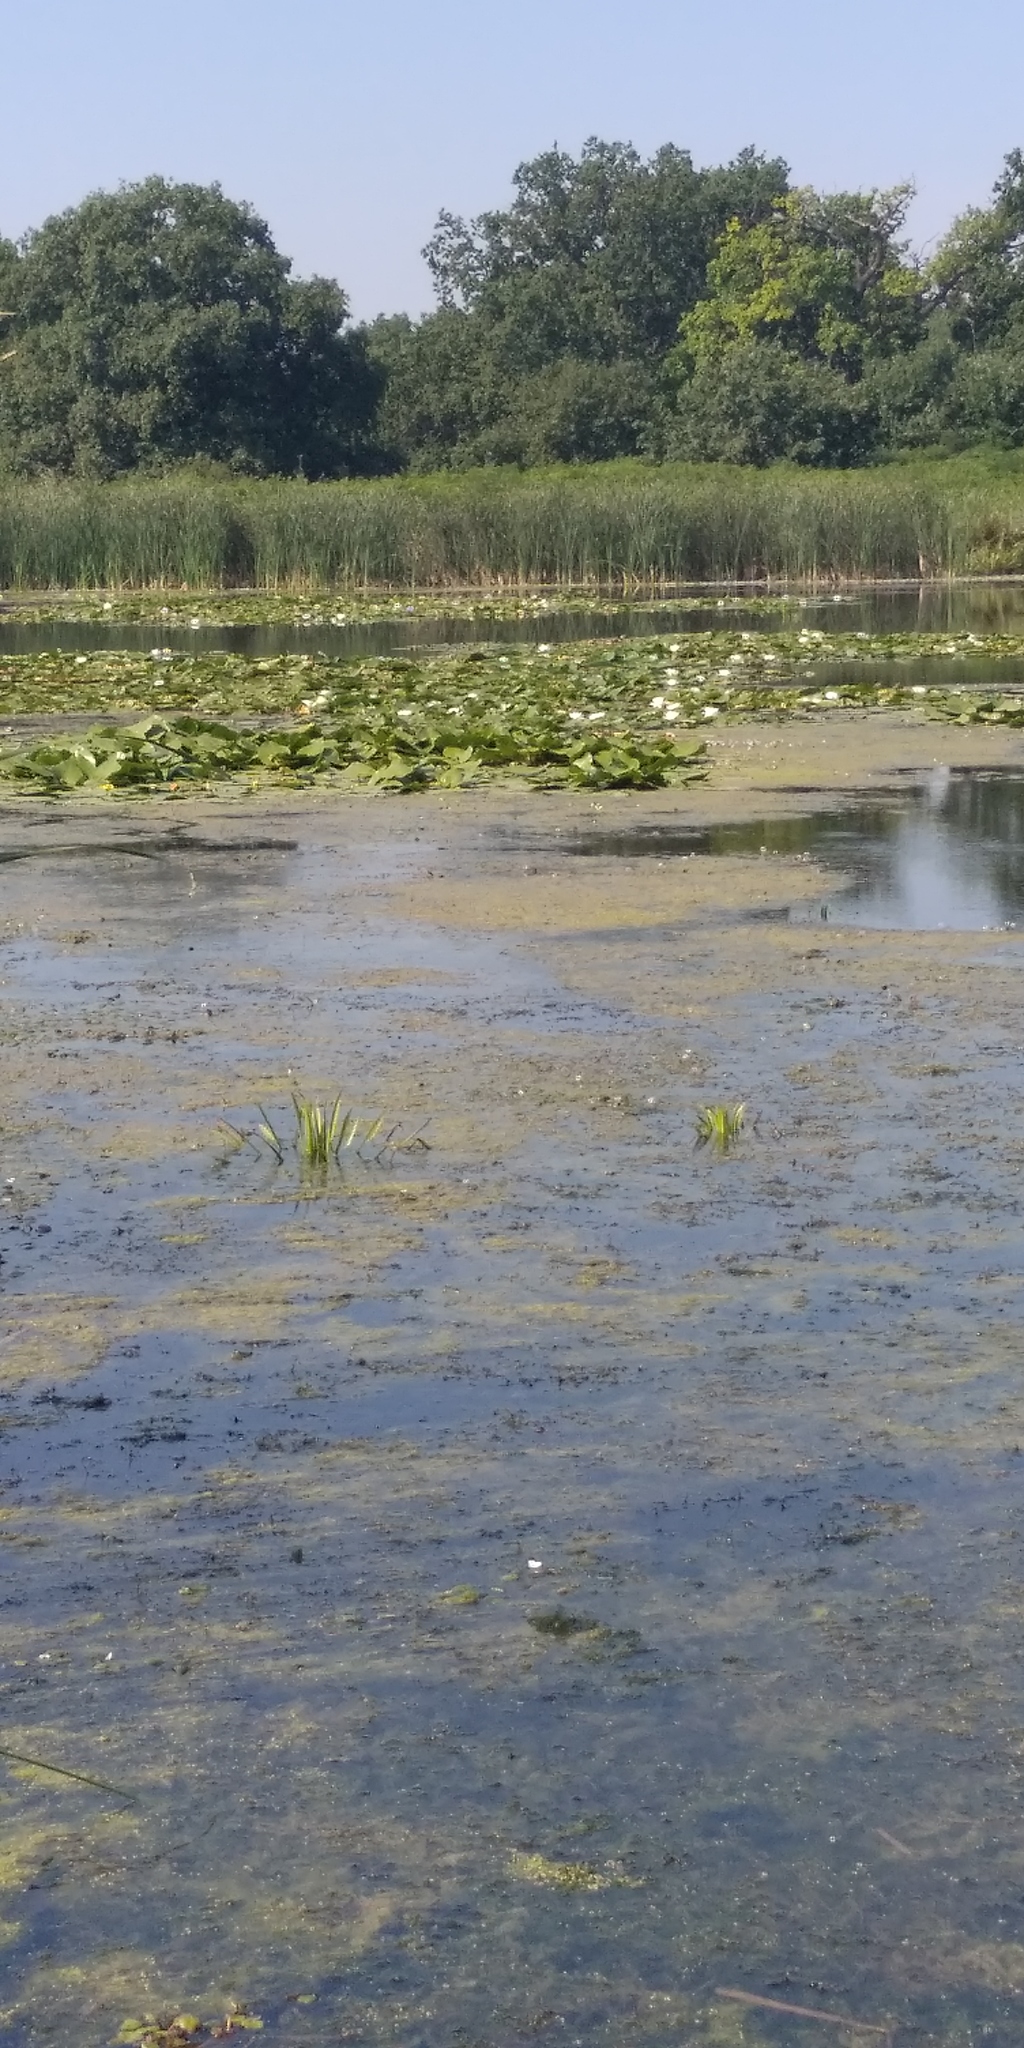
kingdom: Plantae
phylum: Tracheophyta
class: Magnoliopsida
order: Nymphaeales
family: Nymphaeaceae
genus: Nymphaea
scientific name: Nymphaea candida
